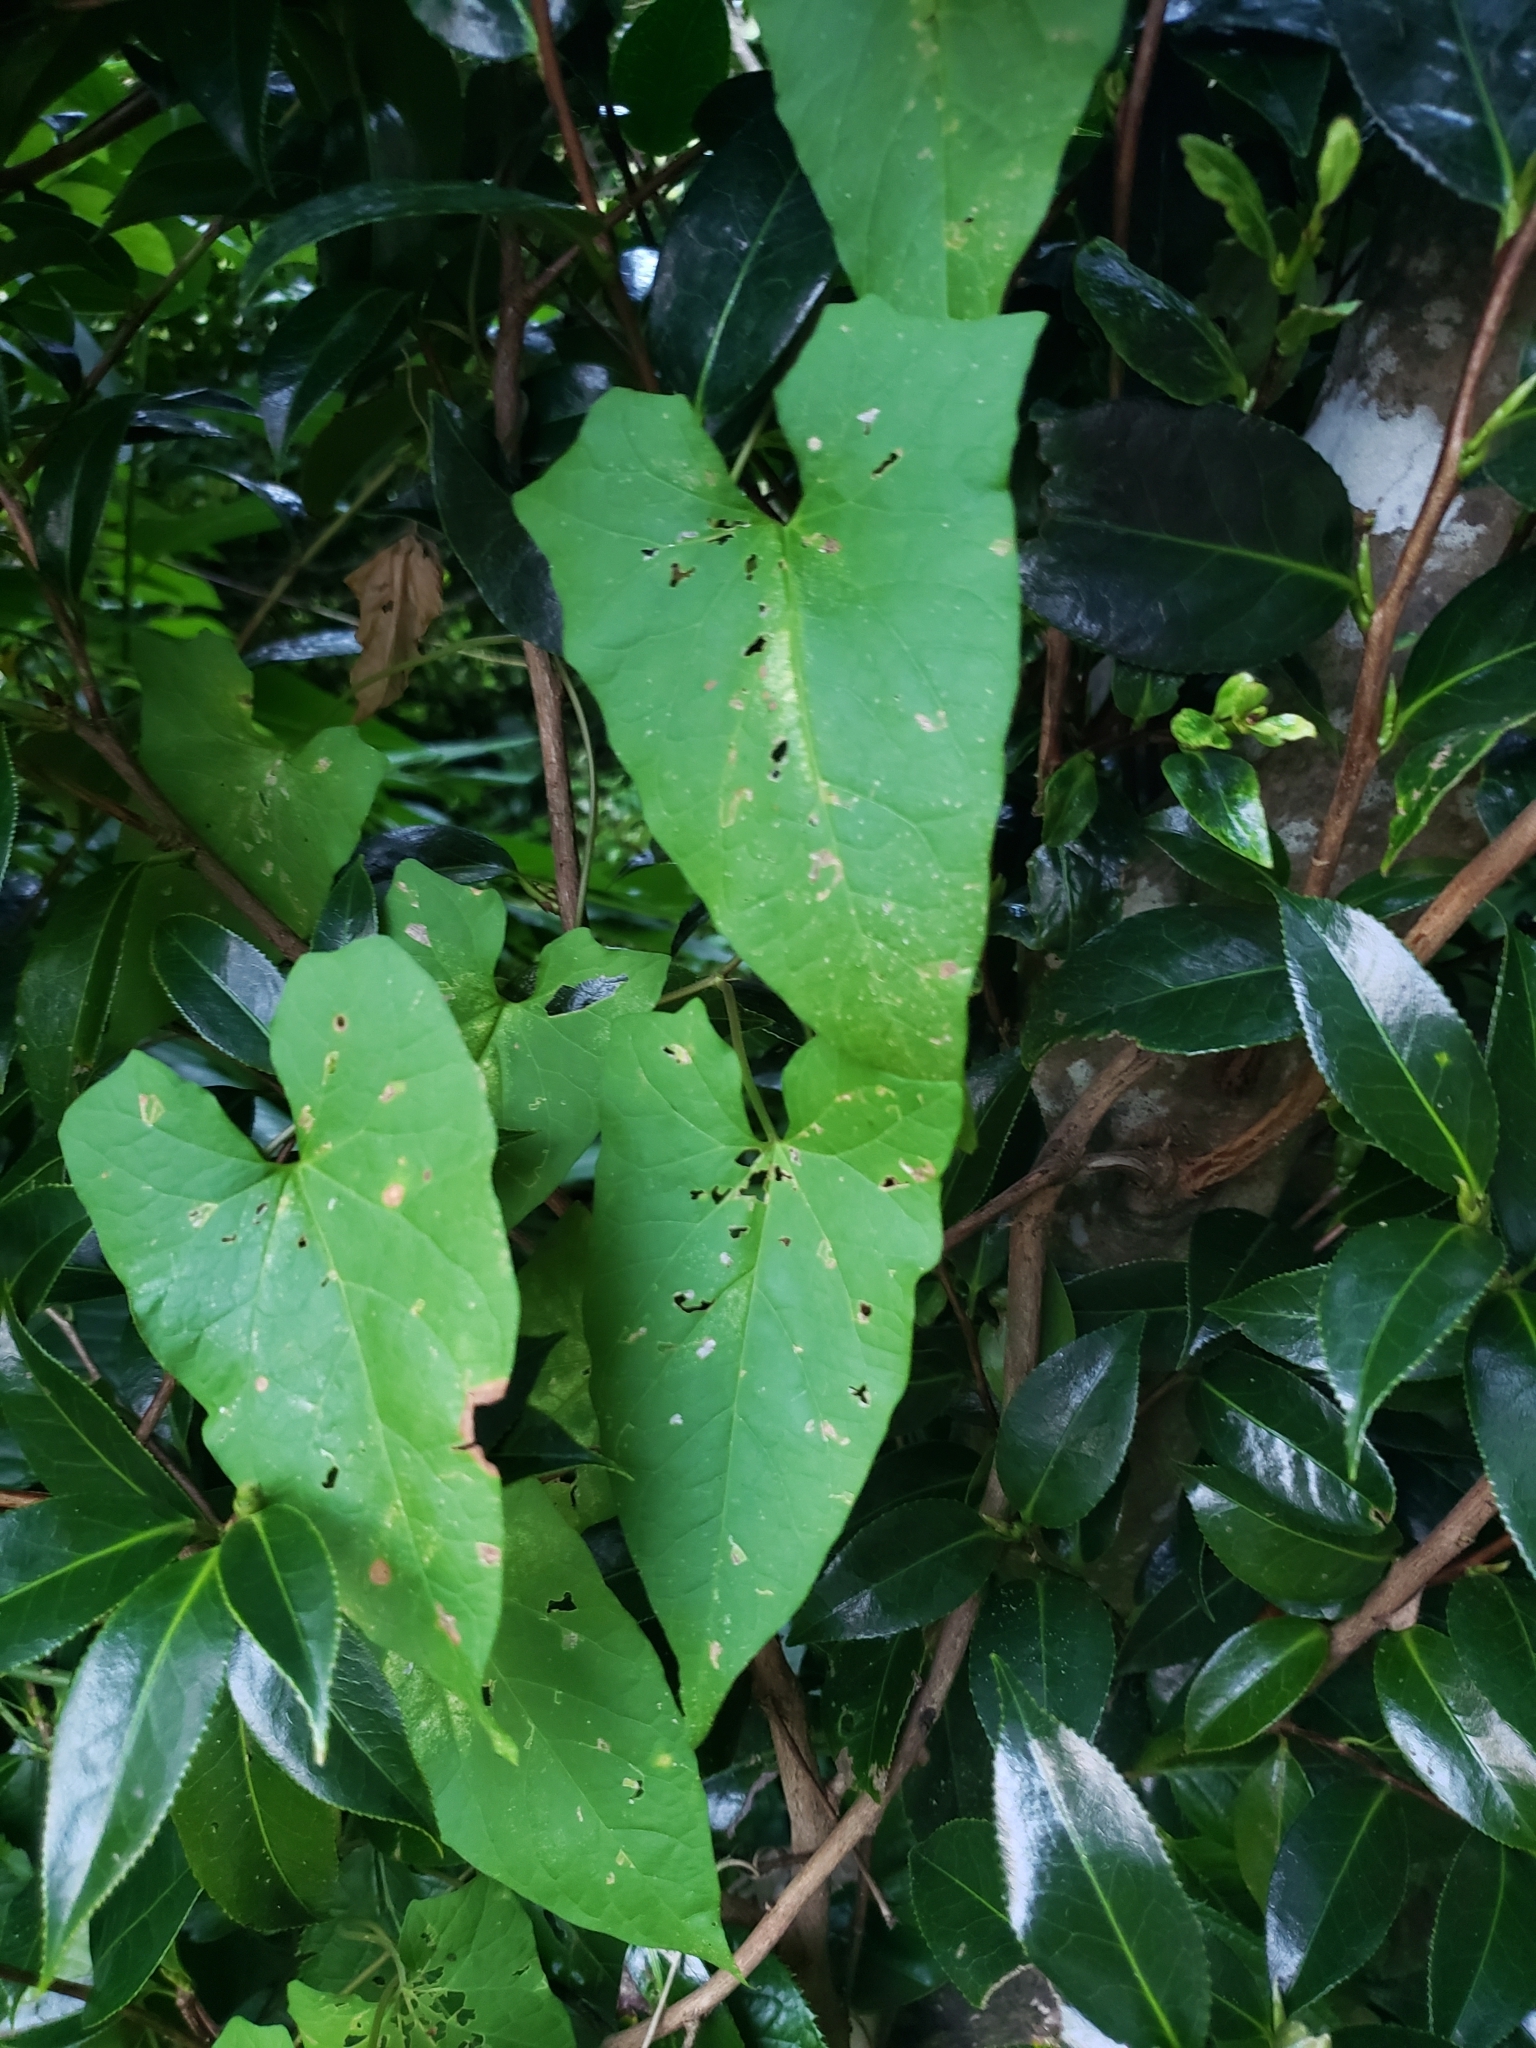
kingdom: Plantae
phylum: Tracheophyta
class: Magnoliopsida
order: Solanales
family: Convolvulaceae
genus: Calystegia
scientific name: Calystegia silvatica
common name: Large bindweed
